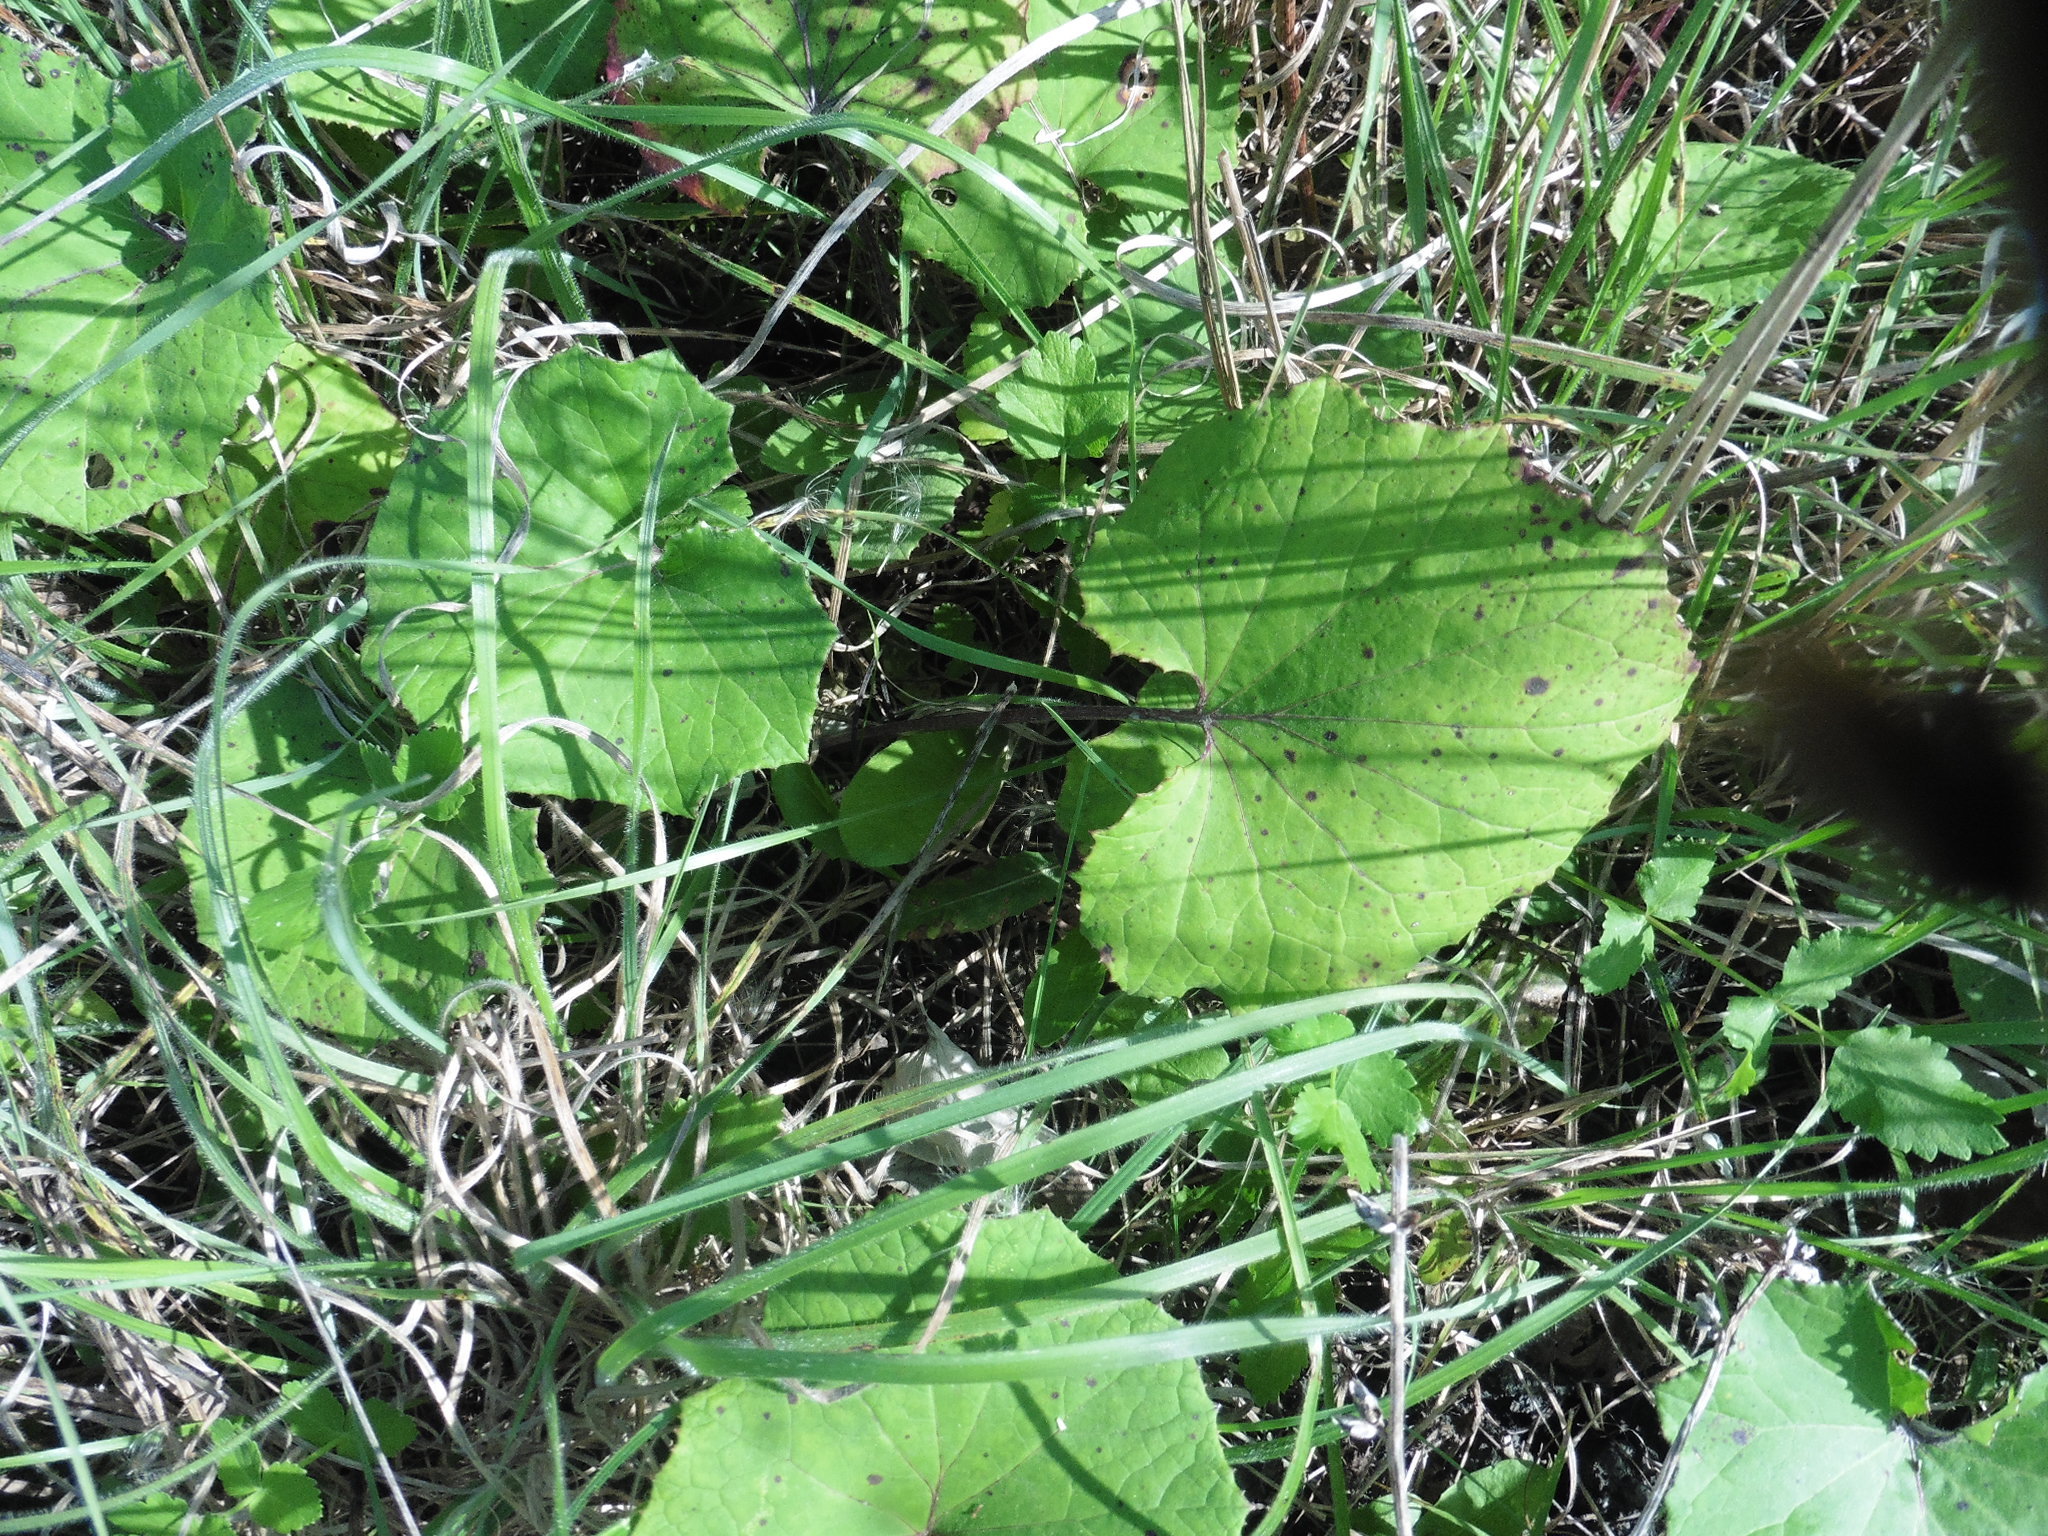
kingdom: Plantae
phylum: Tracheophyta
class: Magnoliopsida
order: Asterales
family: Asteraceae
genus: Tussilago
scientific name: Tussilago farfara
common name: Coltsfoot
